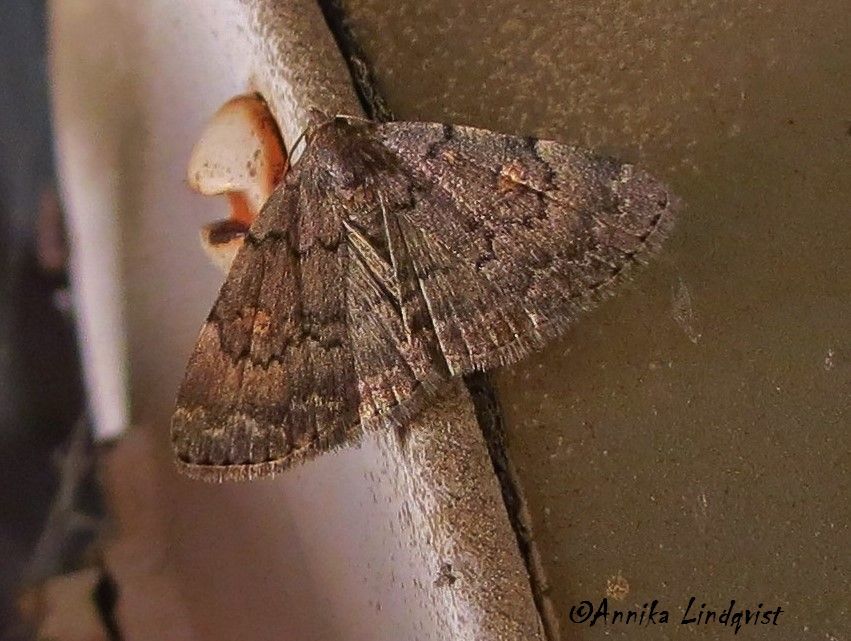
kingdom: Animalia
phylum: Arthropoda
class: Insecta
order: Lepidoptera
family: Erebidae
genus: Idia
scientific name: Idia aemula
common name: Common idia moth
